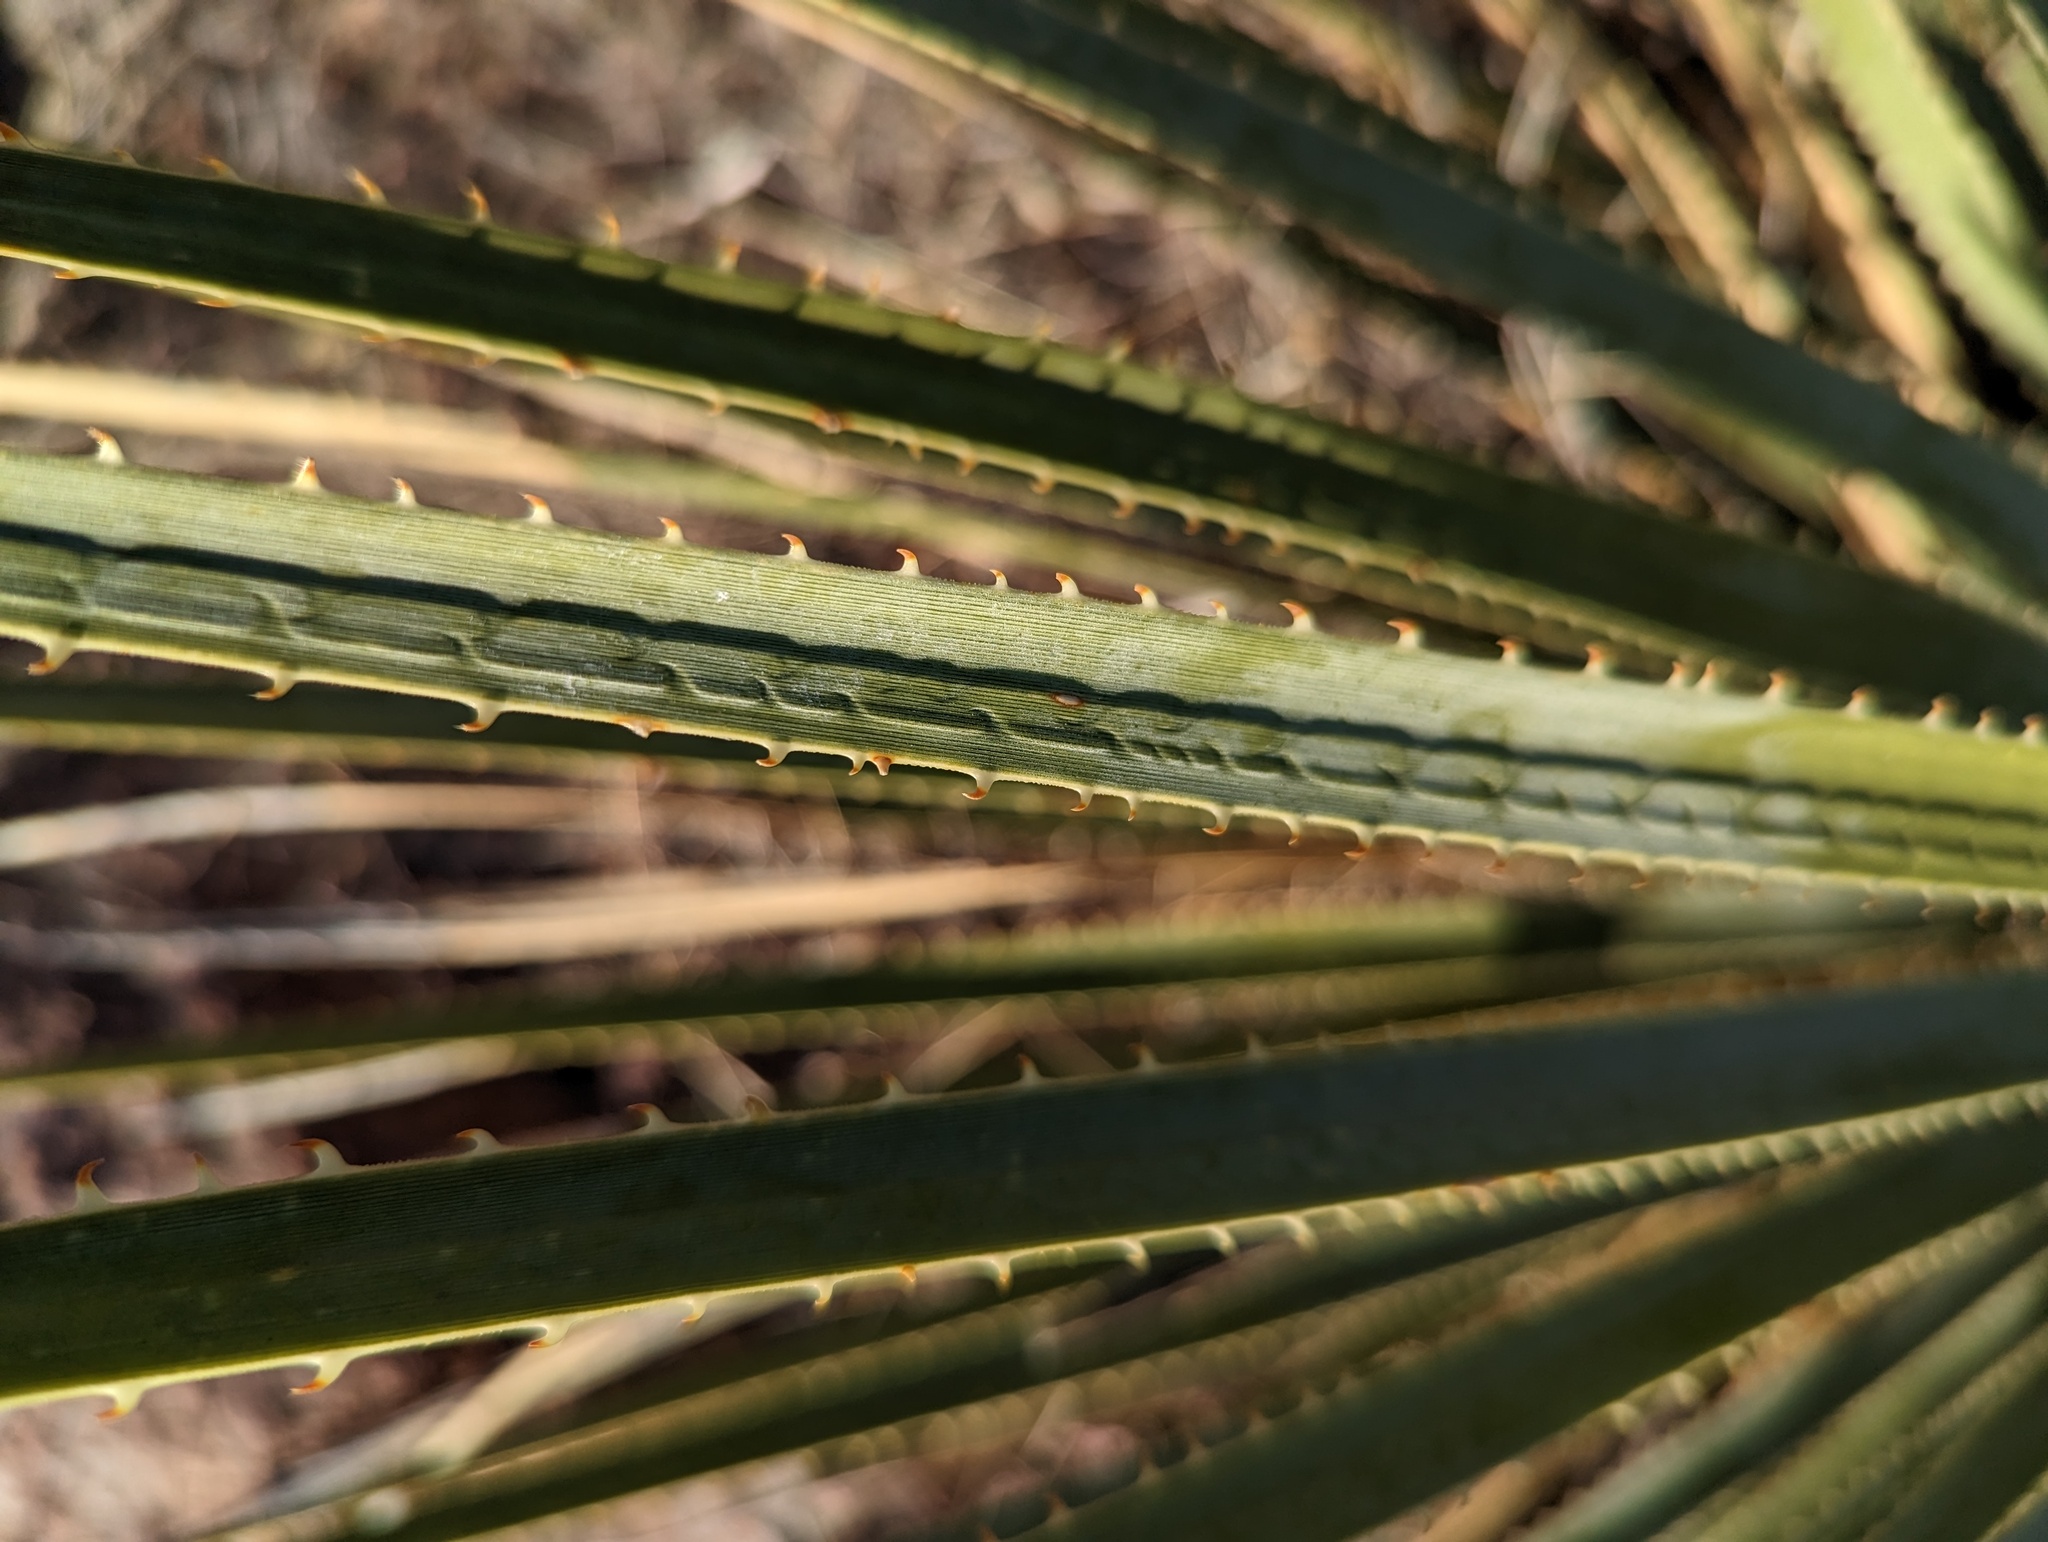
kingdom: Plantae
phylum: Tracheophyta
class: Liliopsida
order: Asparagales
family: Asparagaceae
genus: Dasylirion
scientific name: Dasylirion wheeleri
